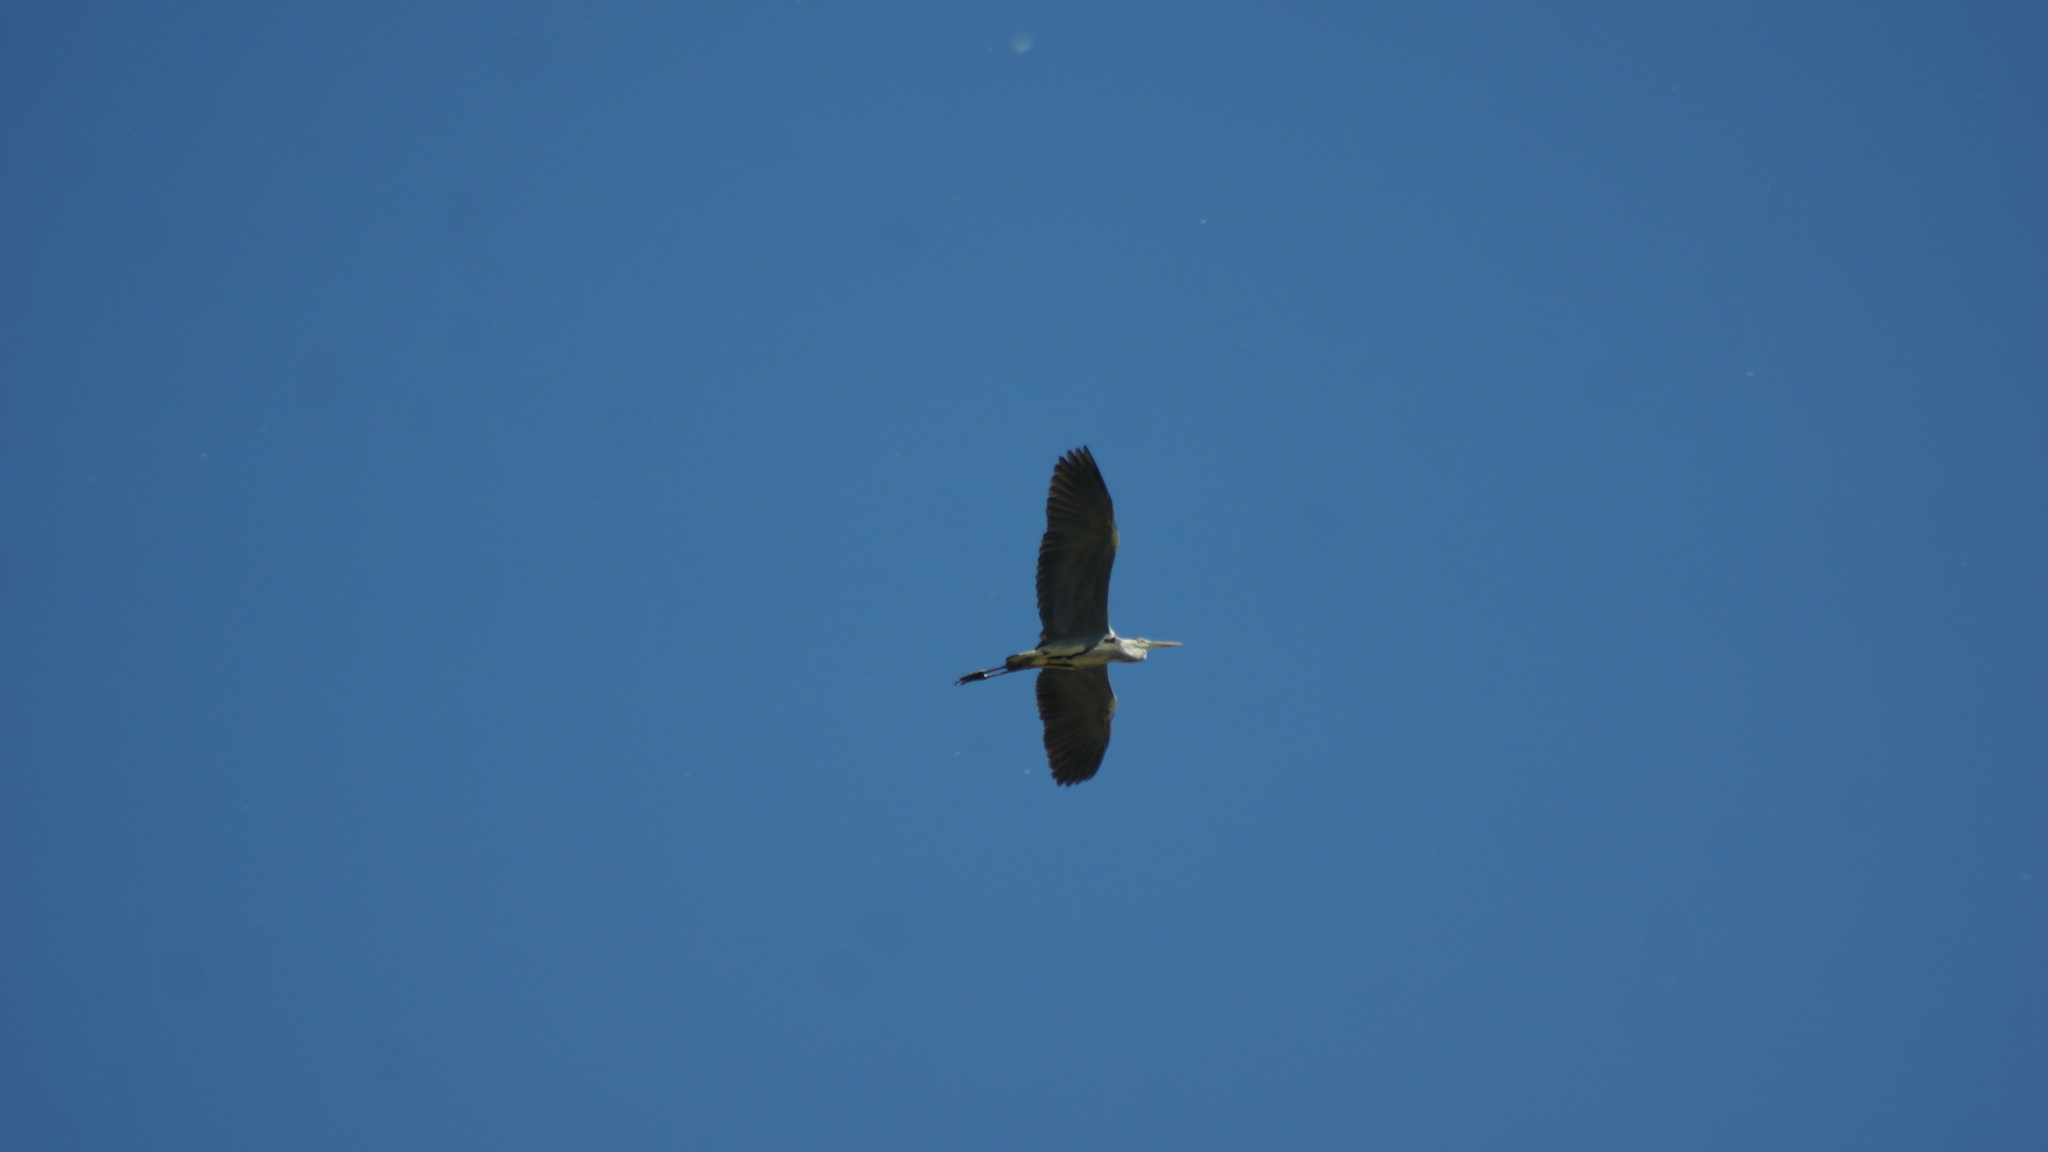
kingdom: Animalia
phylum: Chordata
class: Aves
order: Pelecaniformes
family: Ardeidae
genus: Ardea
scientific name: Ardea cinerea
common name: Grey heron
